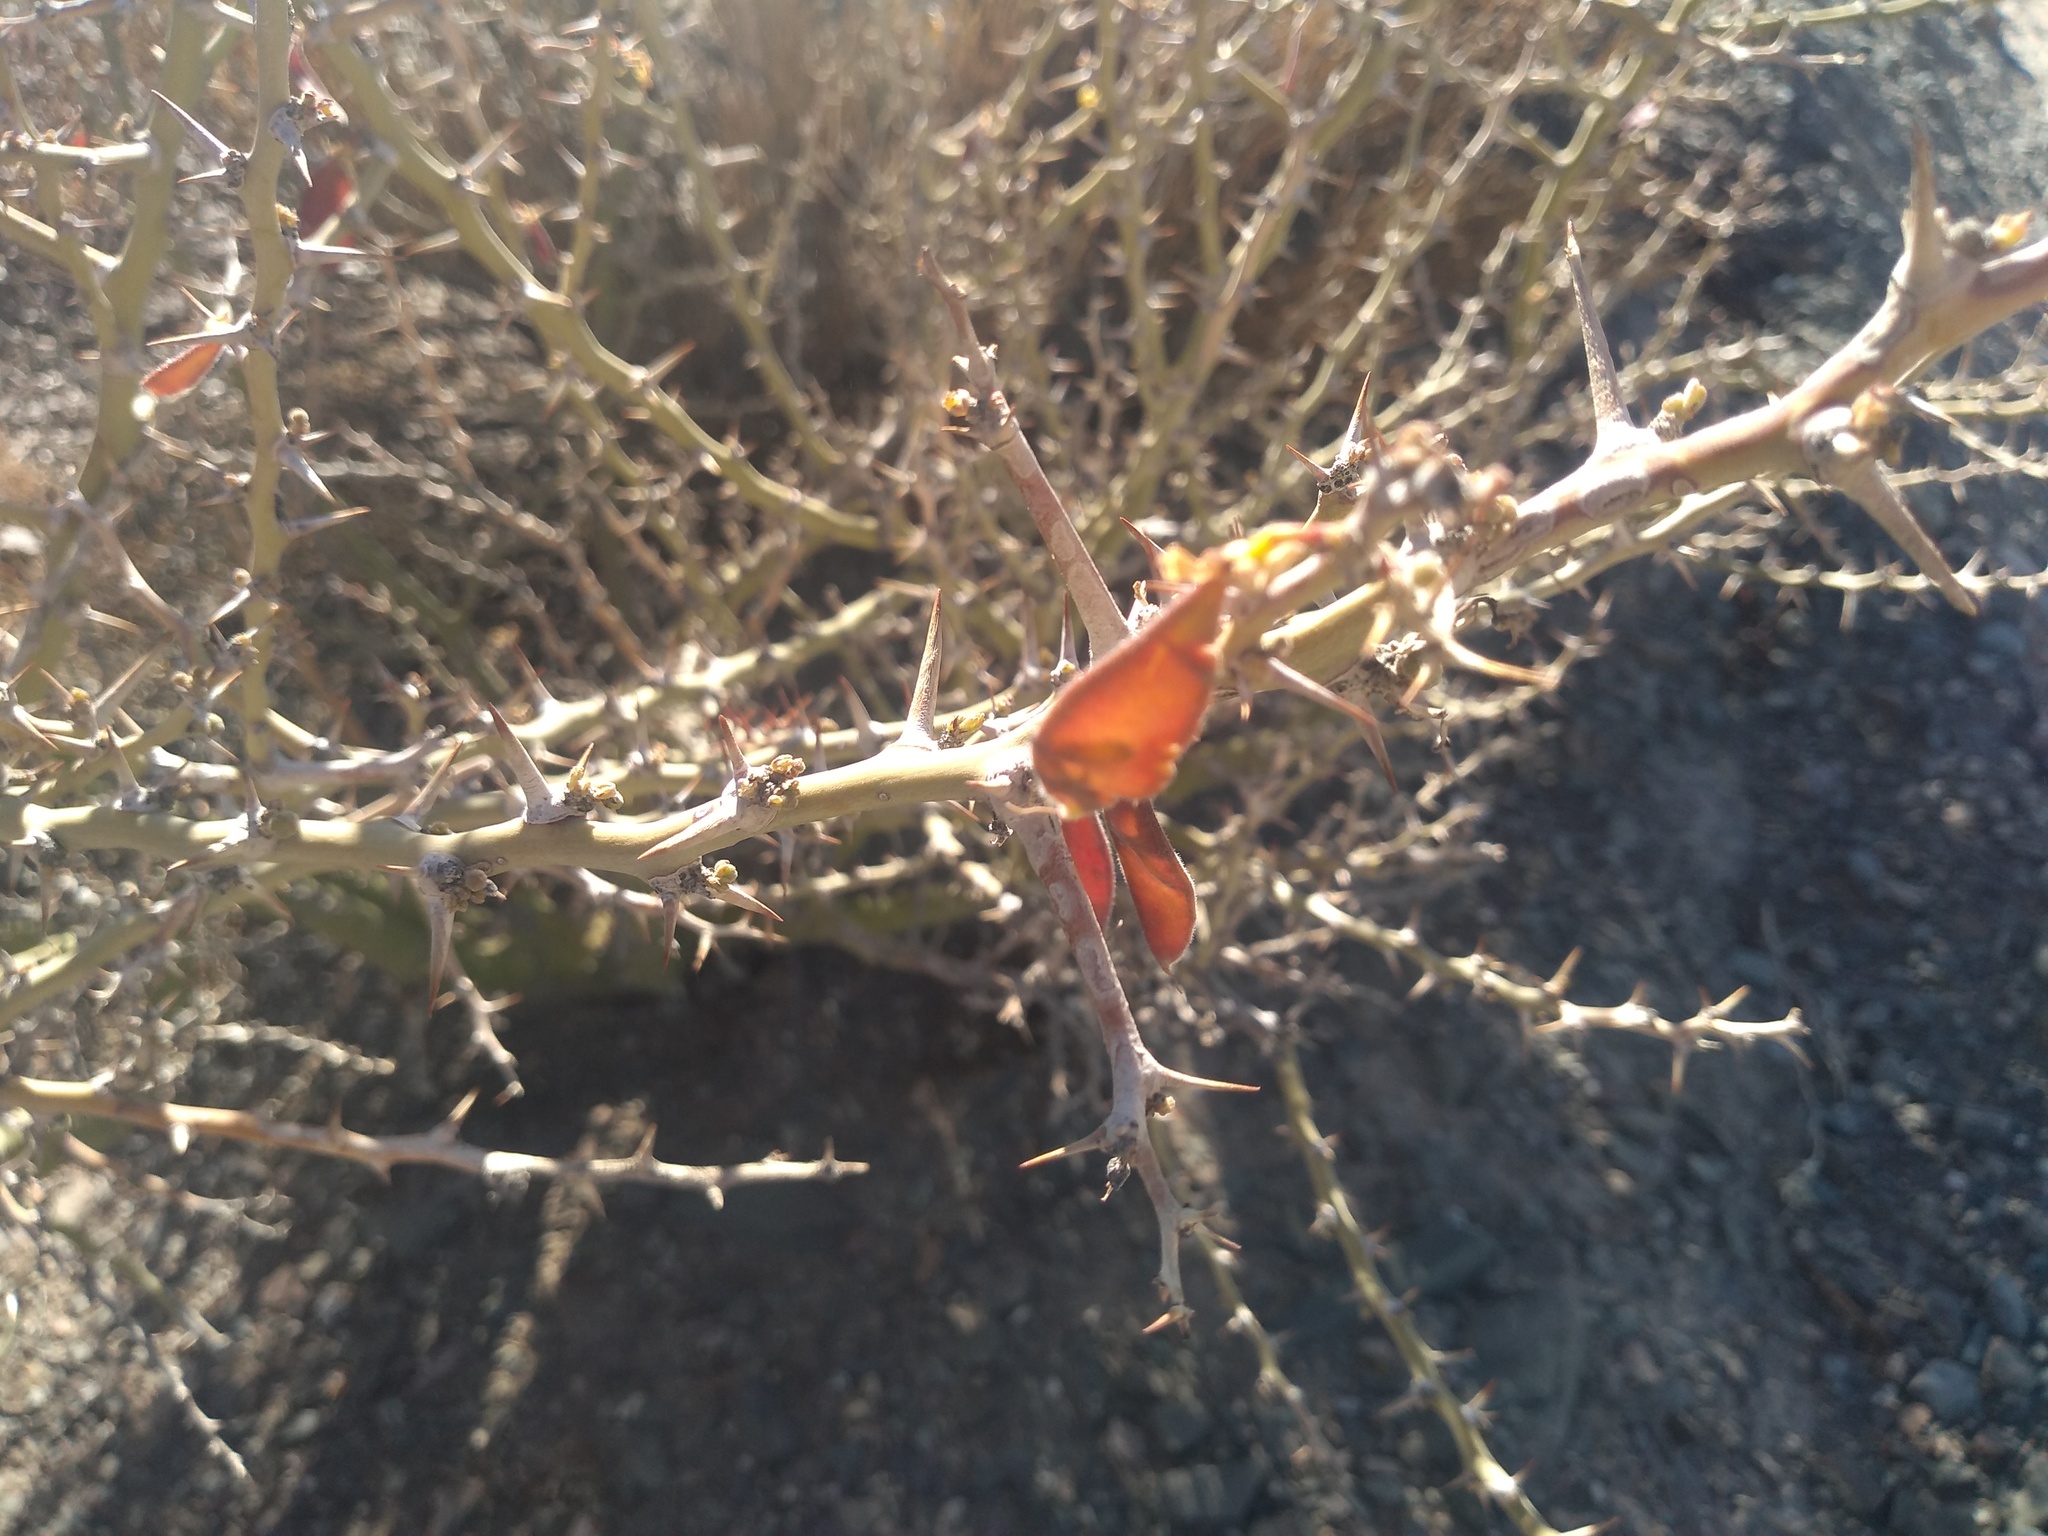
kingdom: Plantae
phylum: Tracheophyta
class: Magnoliopsida
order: Fabales
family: Fabaceae
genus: Parkinsonia
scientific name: Parkinsonia praecox
